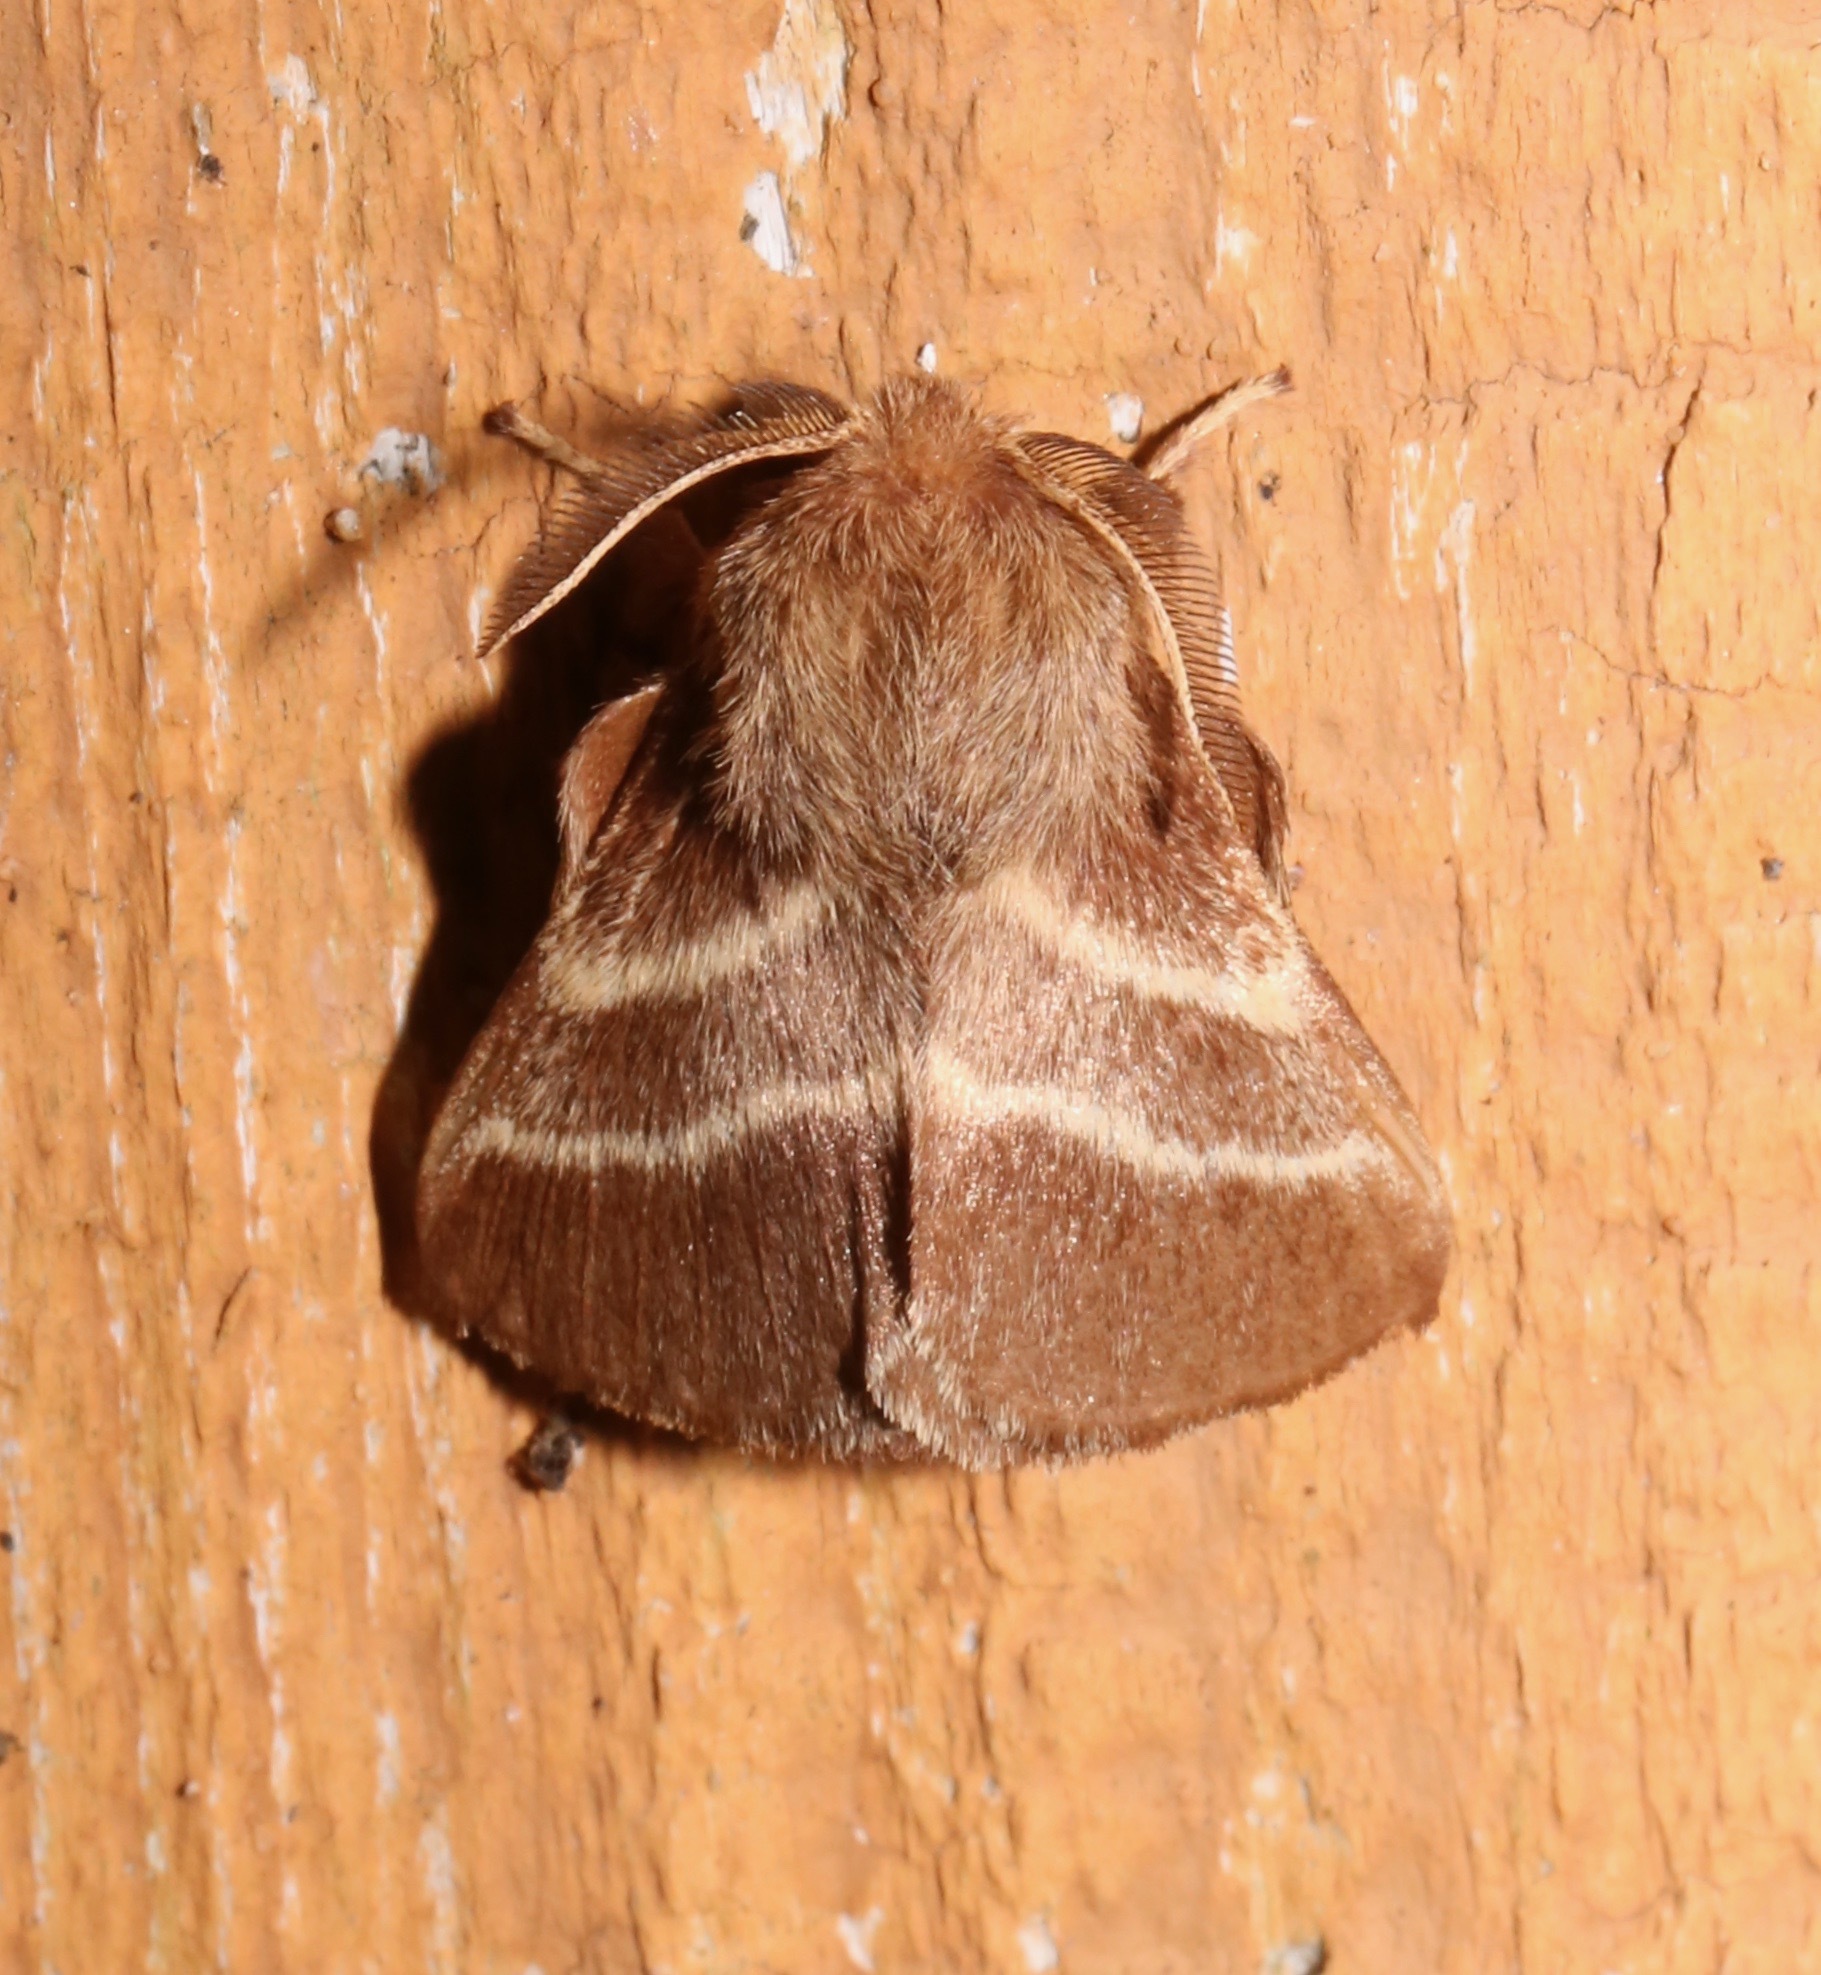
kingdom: Animalia
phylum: Arthropoda
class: Insecta
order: Lepidoptera
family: Lasiocampidae
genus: Malacosoma
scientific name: Malacosoma americana
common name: Eastern tent caterpillar moth
